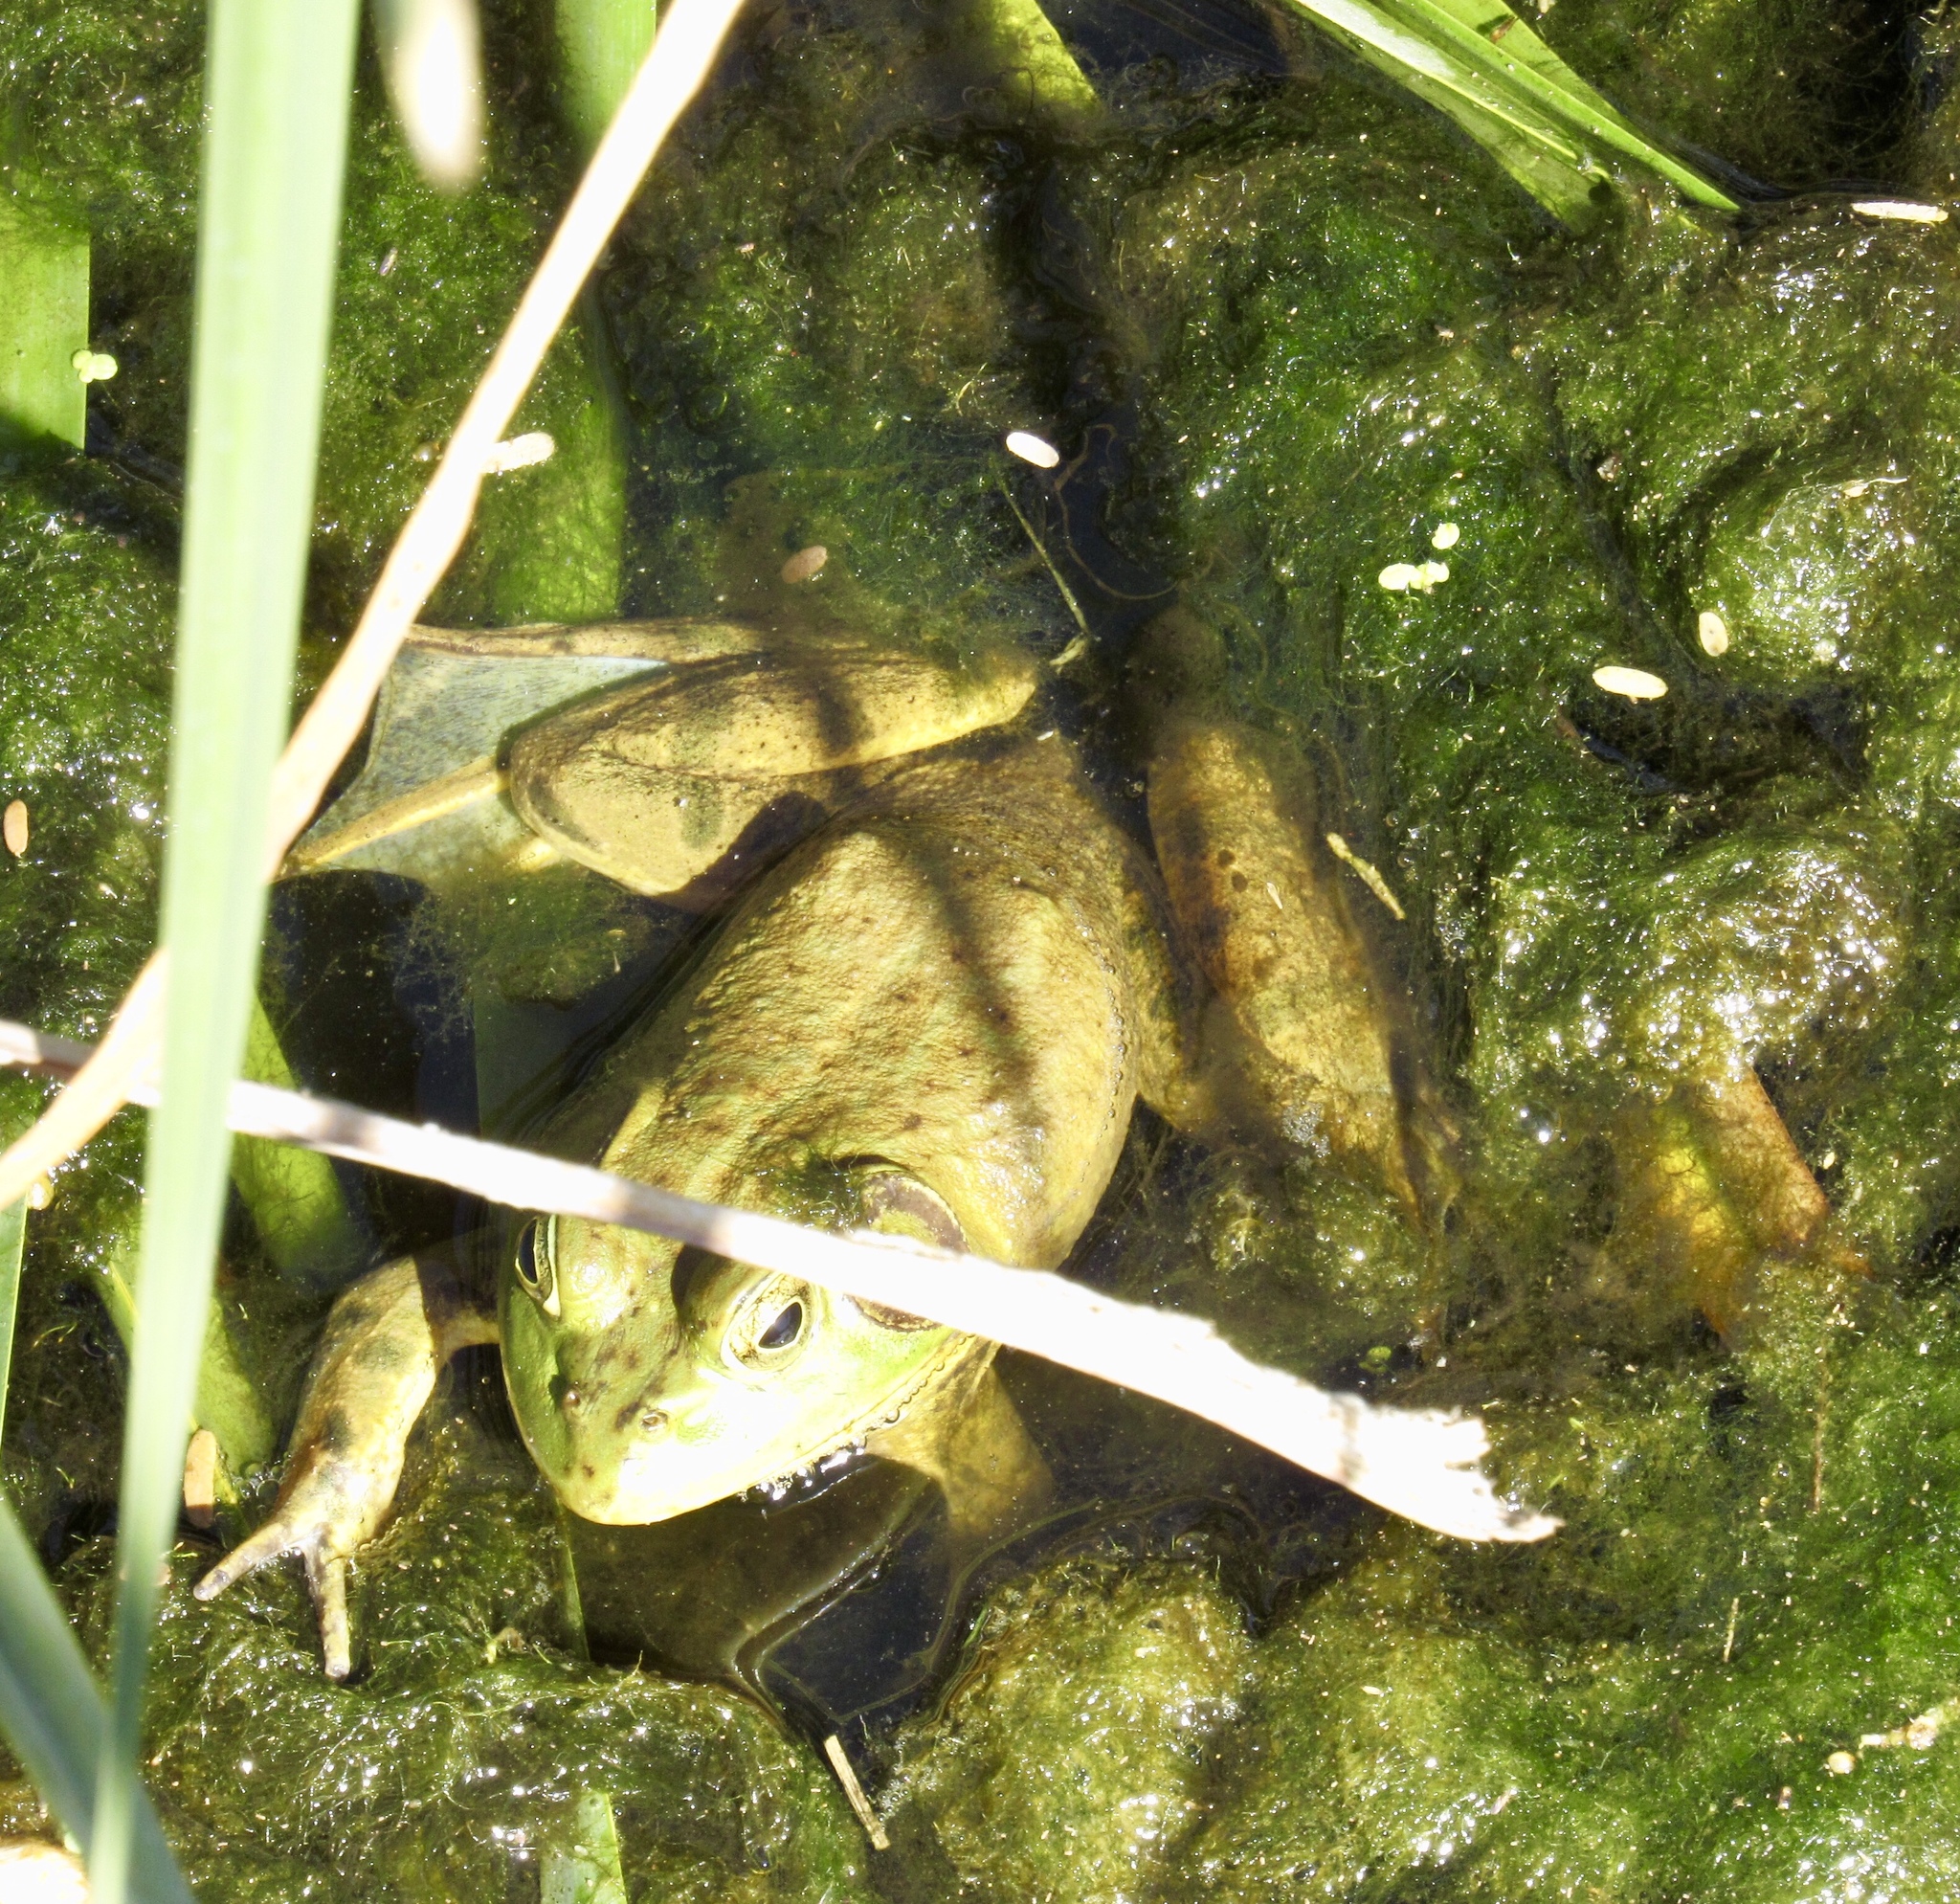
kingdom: Animalia
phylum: Chordata
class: Amphibia
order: Anura
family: Ranidae
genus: Lithobates
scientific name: Lithobates catesbeianus
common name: American bullfrog
